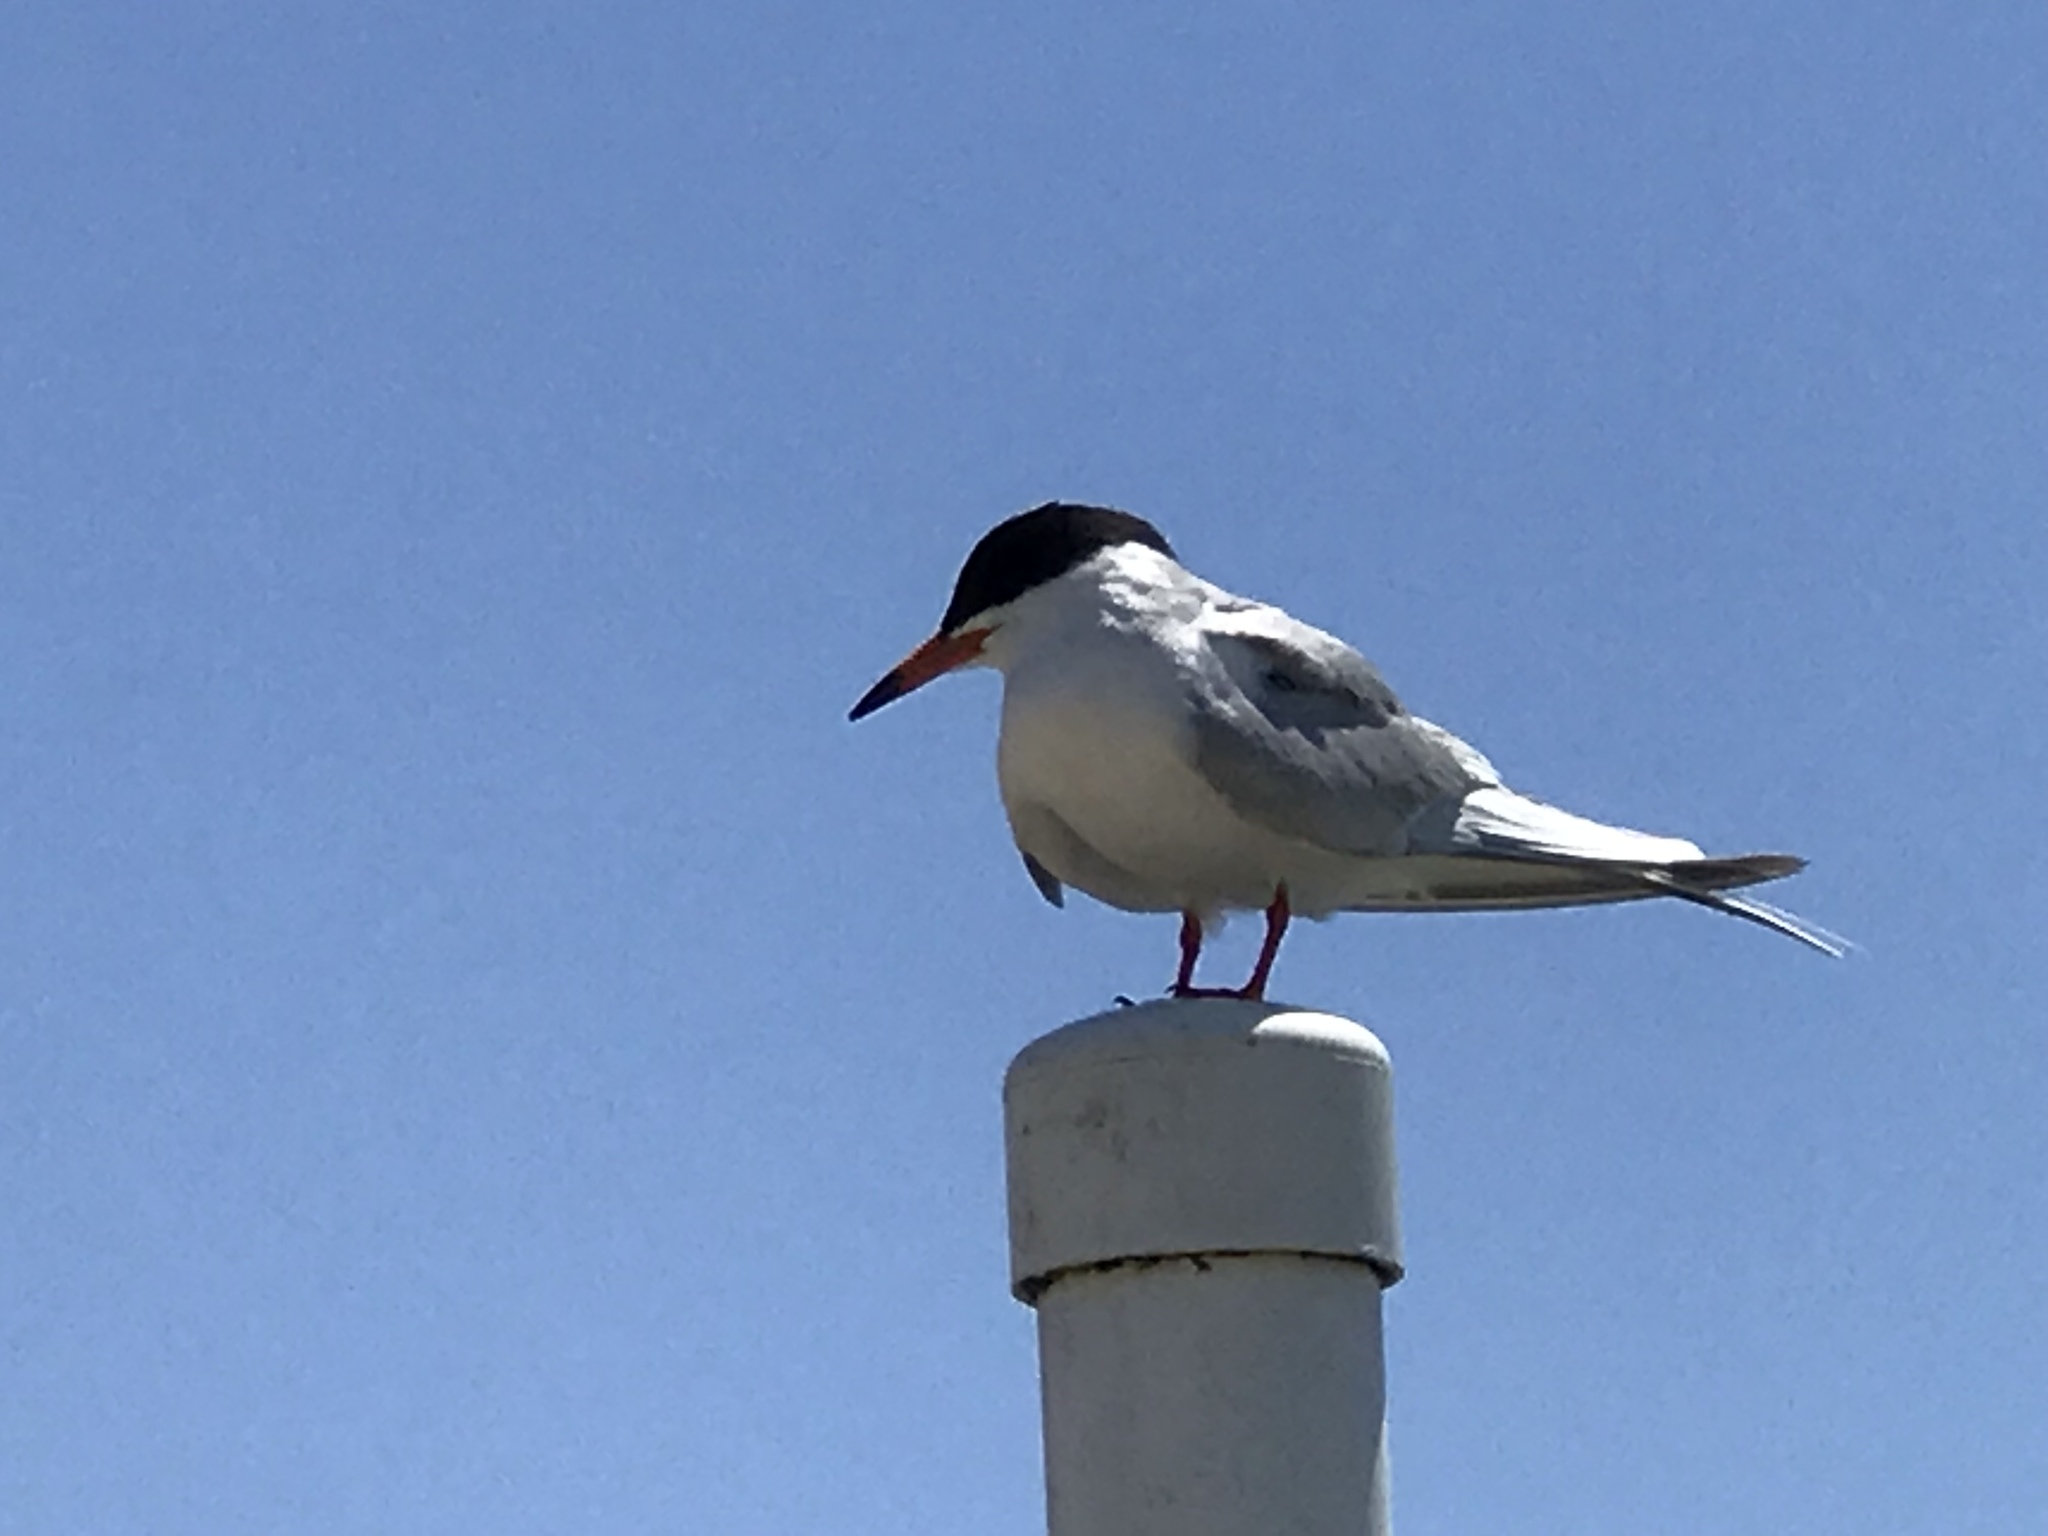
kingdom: Animalia
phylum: Chordata
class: Aves
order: Charadriiformes
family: Laridae
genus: Sterna
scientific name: Sterna forsteri
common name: Forster's tern
